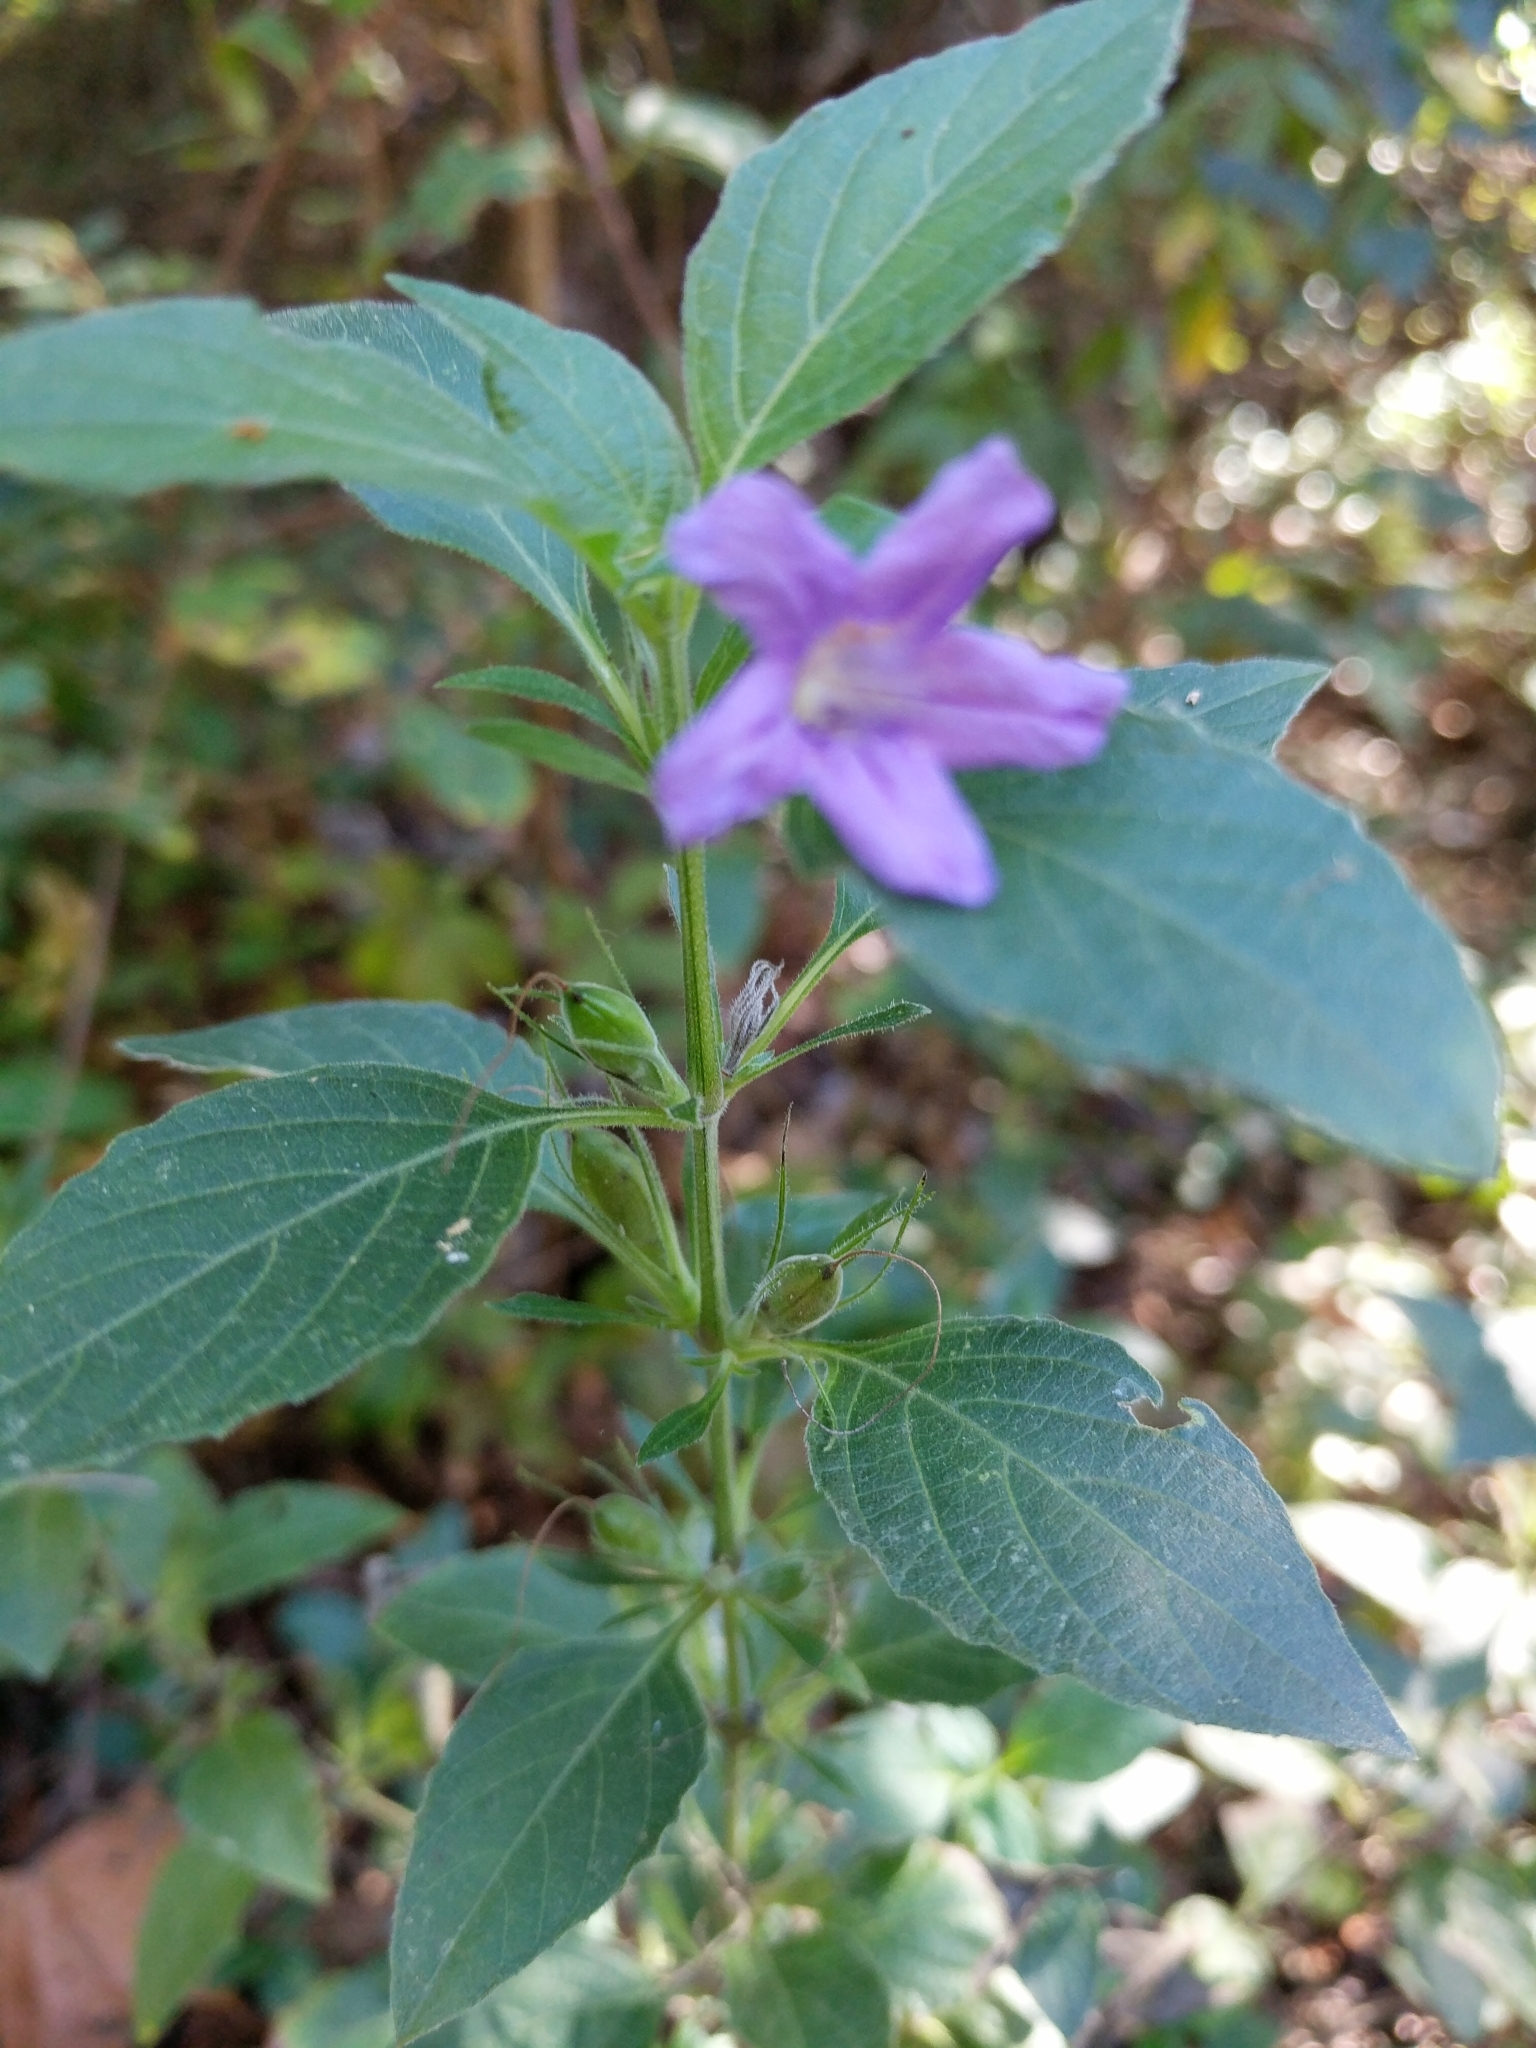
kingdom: Plantae
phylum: Tracheophyta
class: Magnoliopsida
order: Lamiales
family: Acanthaceae
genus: Ruellia
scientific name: Ruellia drummondiana
